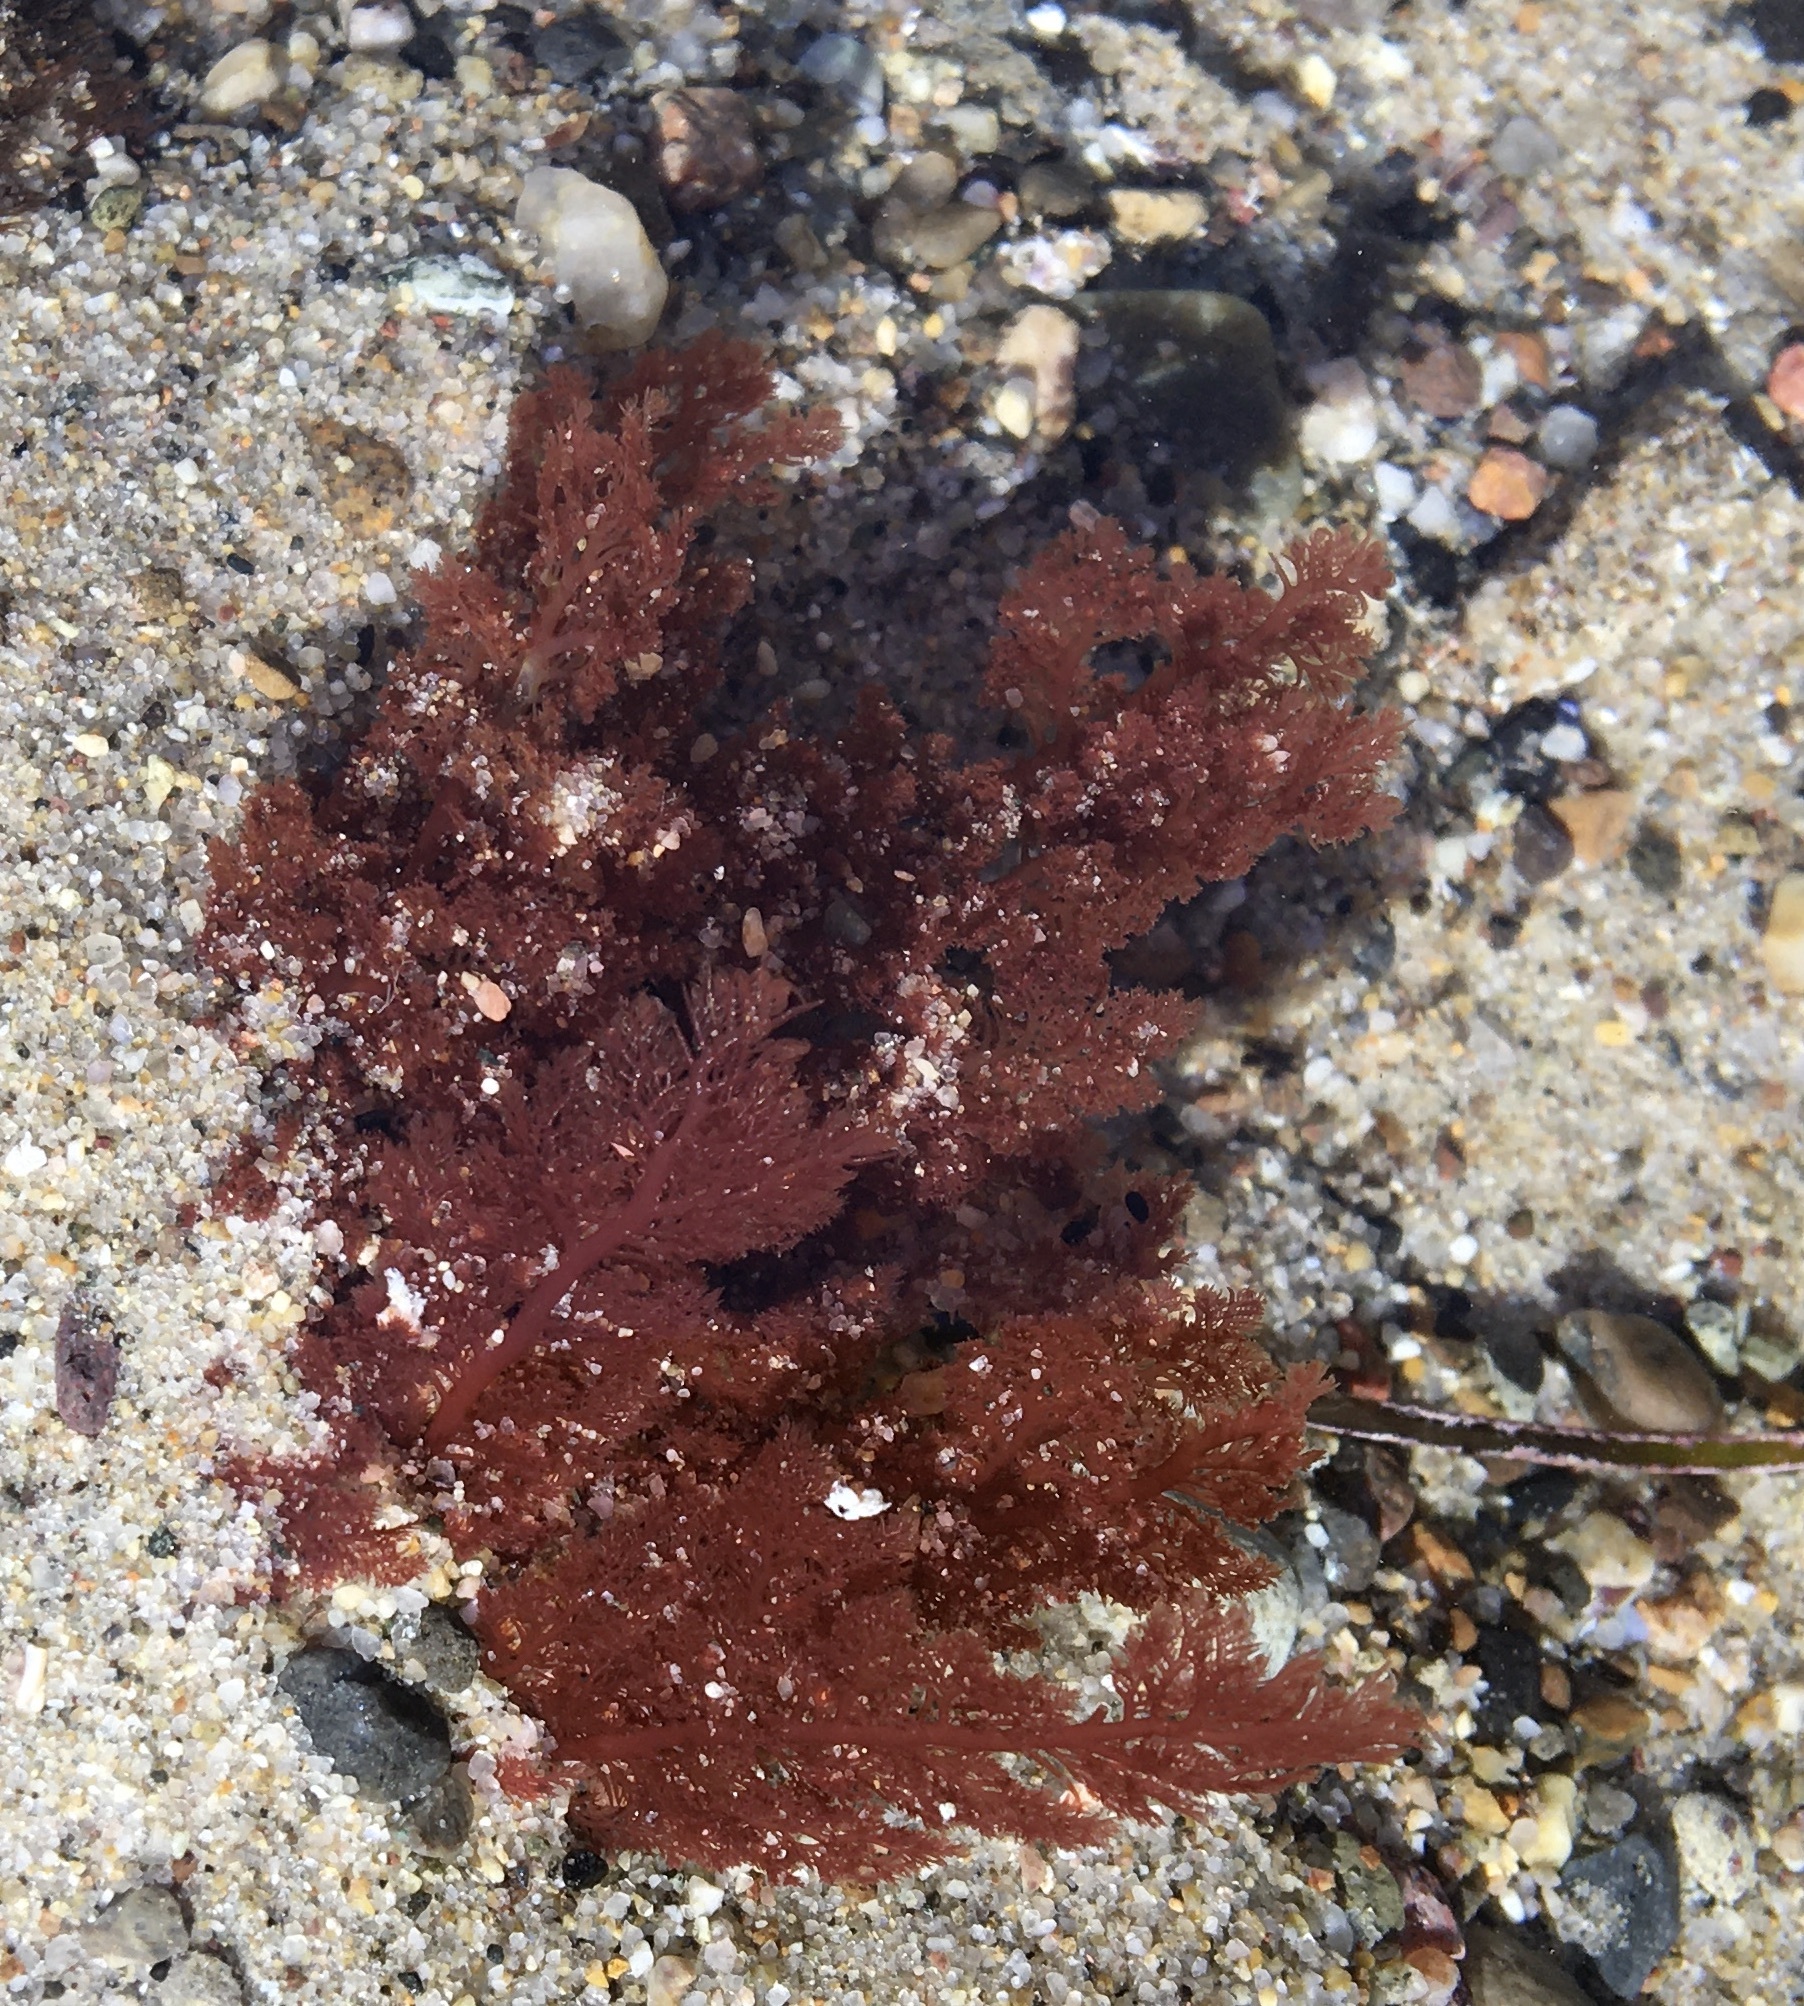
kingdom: Plantae
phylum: Rhodophyta
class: Florideophyceae
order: Plocamiales
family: Plocamiaceae
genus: Plocamium
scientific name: Plocamium cartilagineum
